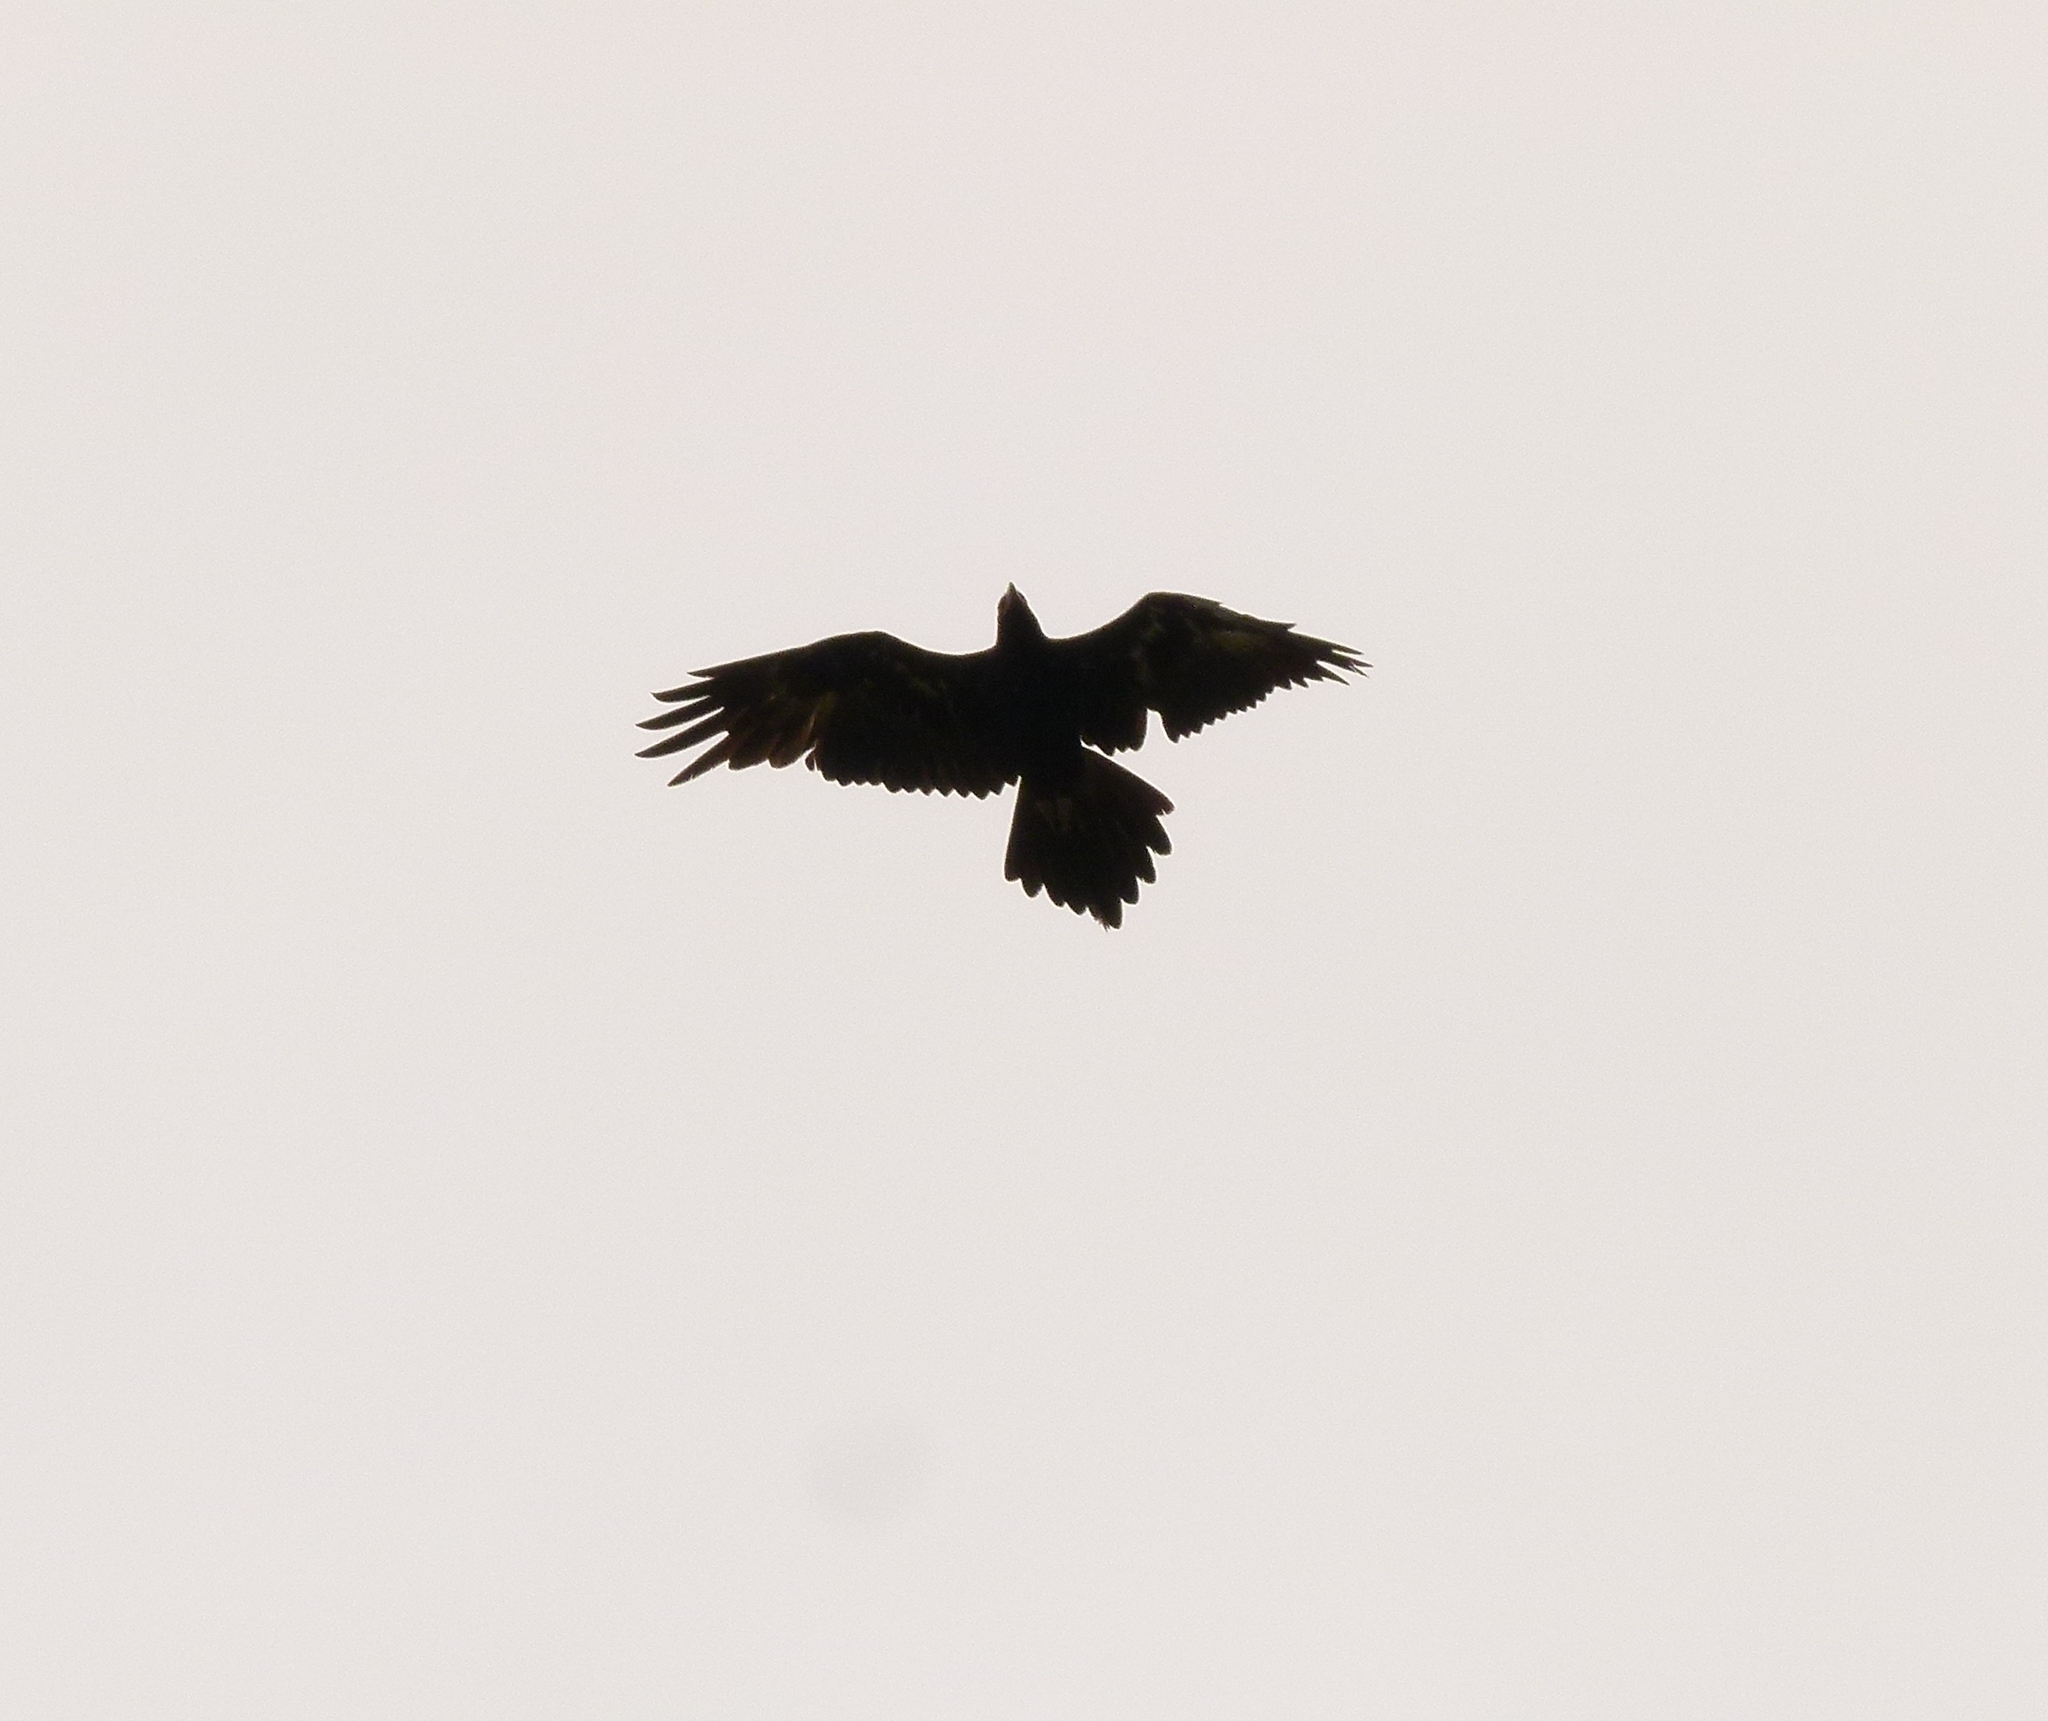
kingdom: Animalia
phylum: Chordata
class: Aves
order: Accipitriformes
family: Accipitridae
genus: Aquila
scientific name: Aquila audax
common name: Wedge-tailed eagle
